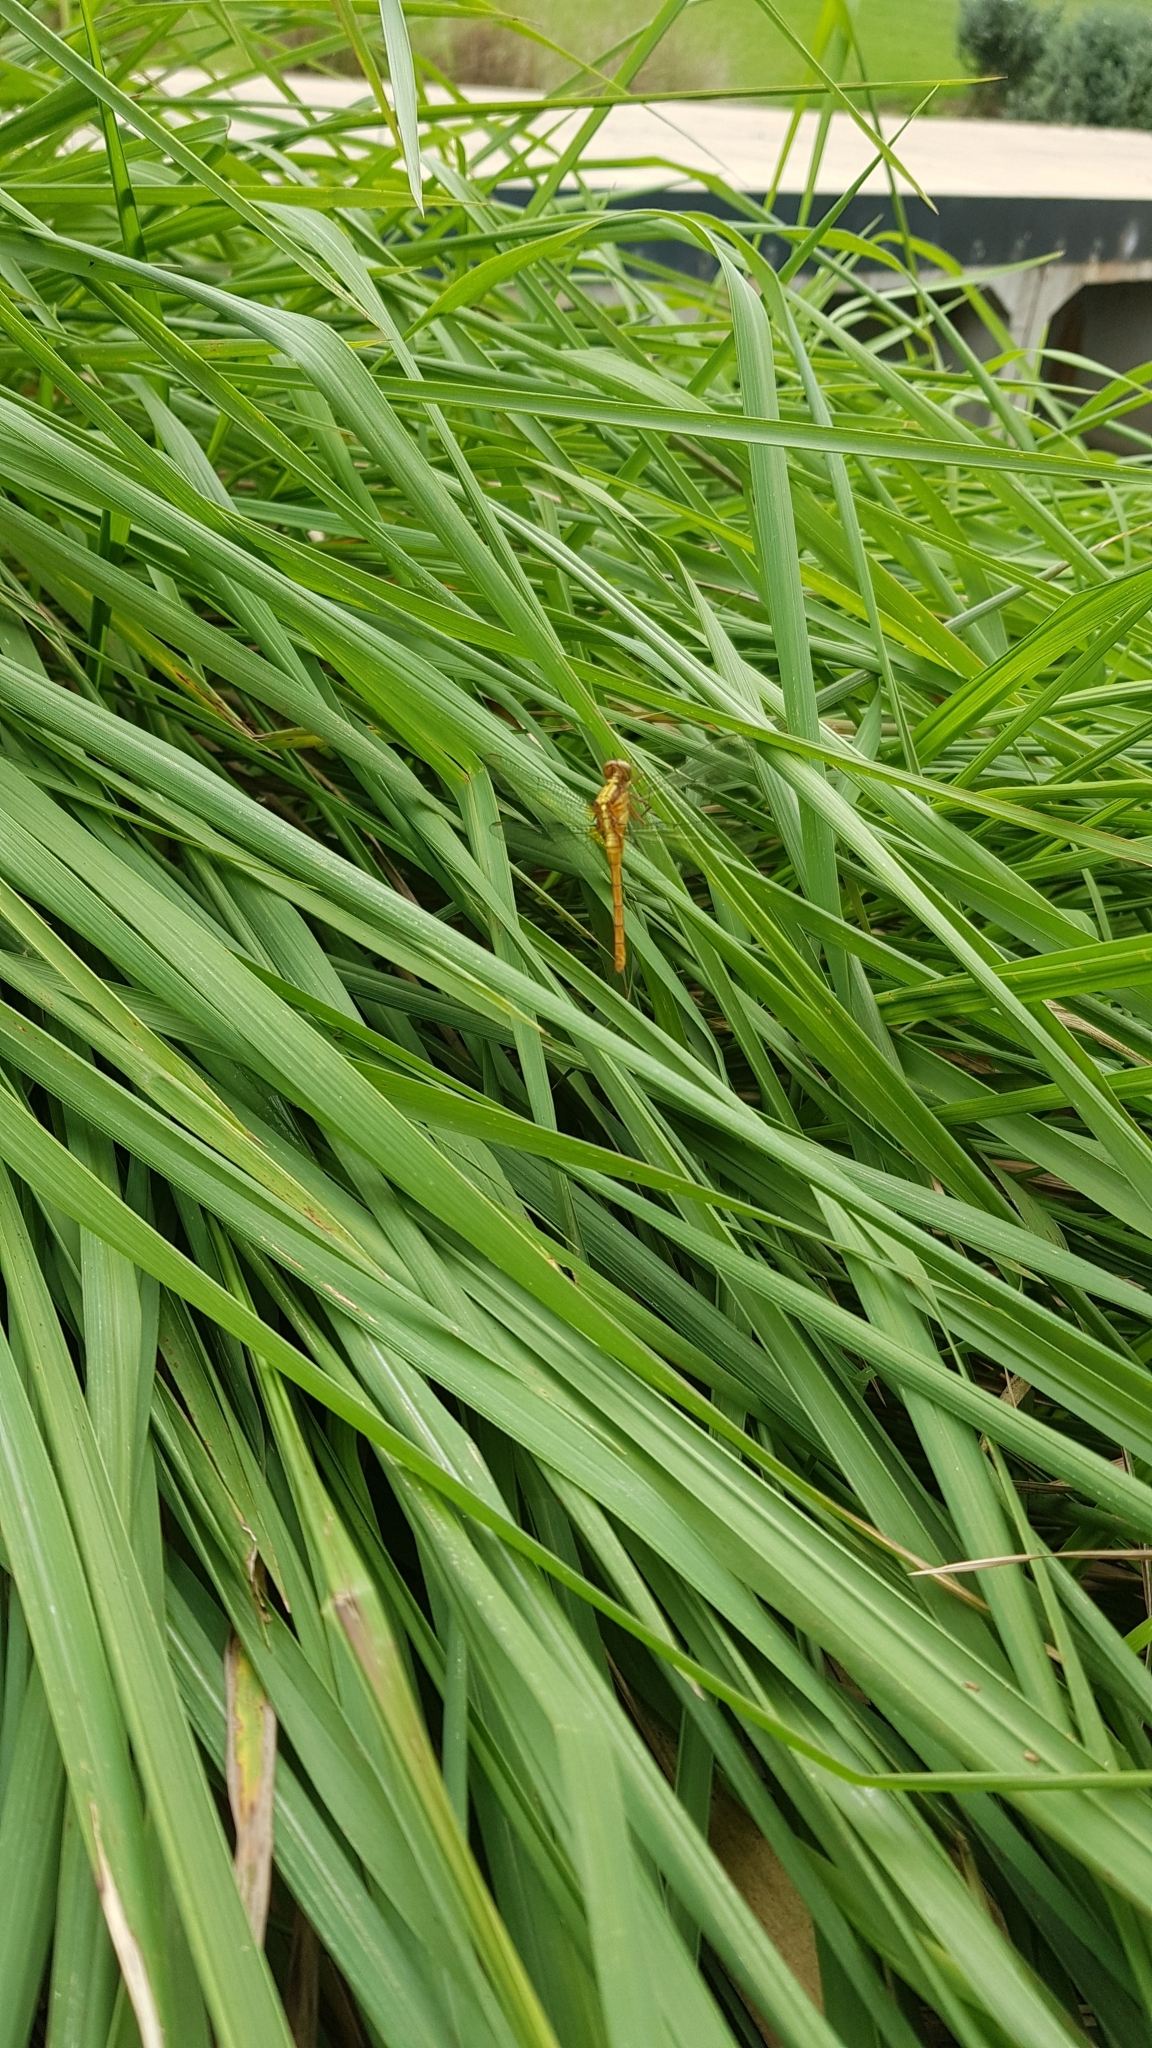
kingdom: Animalia
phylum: Arthropoda
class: Insecta
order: Odonata
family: Libellulidae
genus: Orthetrum
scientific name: Orthetrum villosovittatum
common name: Firery skimmer
